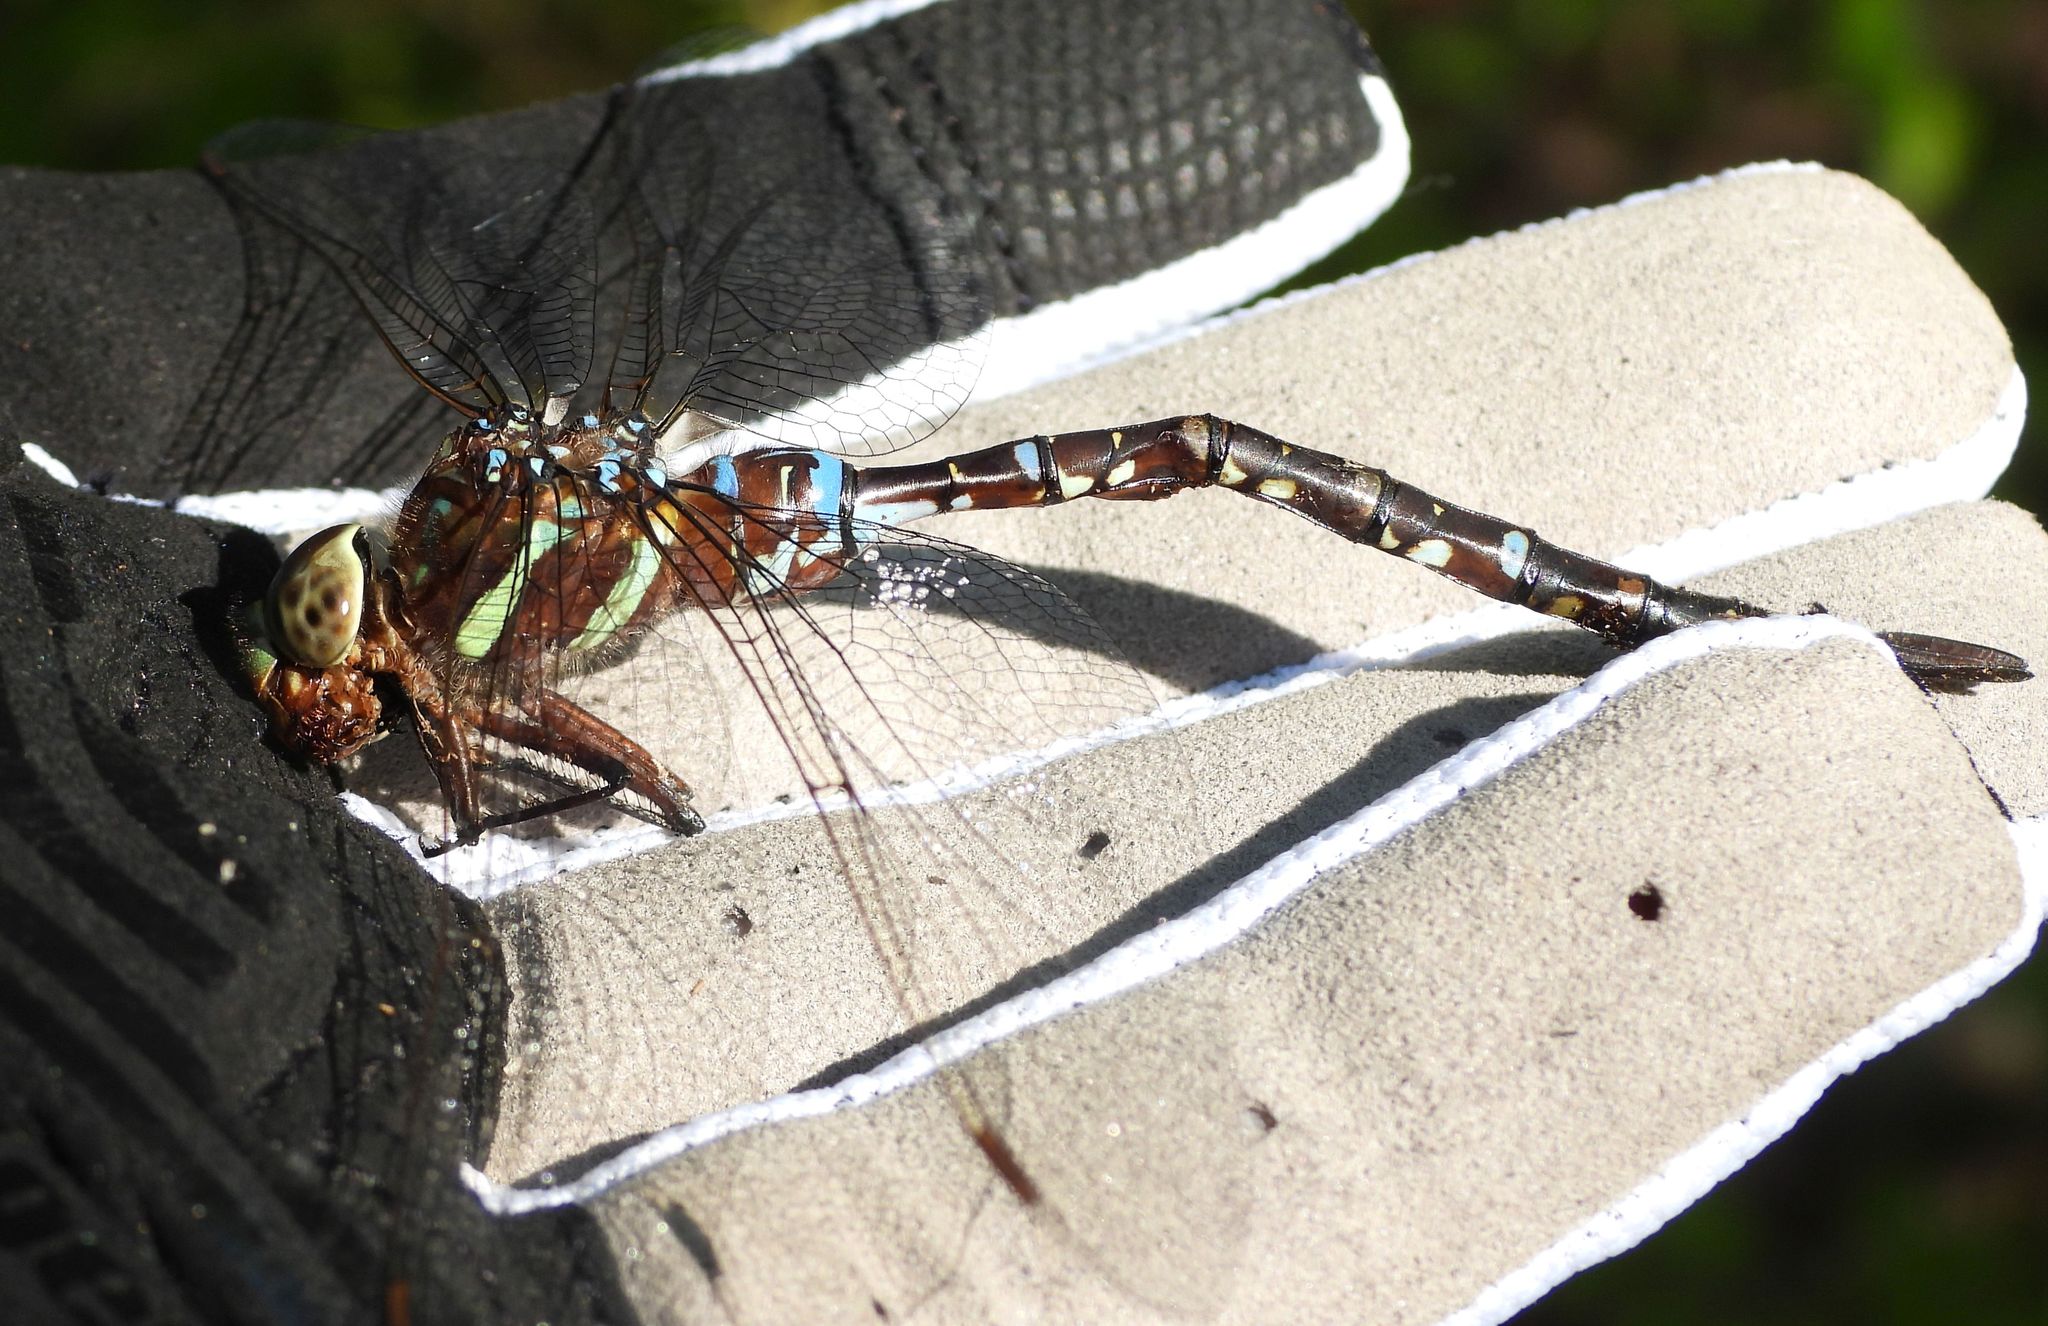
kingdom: Animalia
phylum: Arthropoda
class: Insecta
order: Odonata
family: Aeshnidae
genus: Aeshna
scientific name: Aeshna tuberculifera
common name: Aeschne à tubercules
